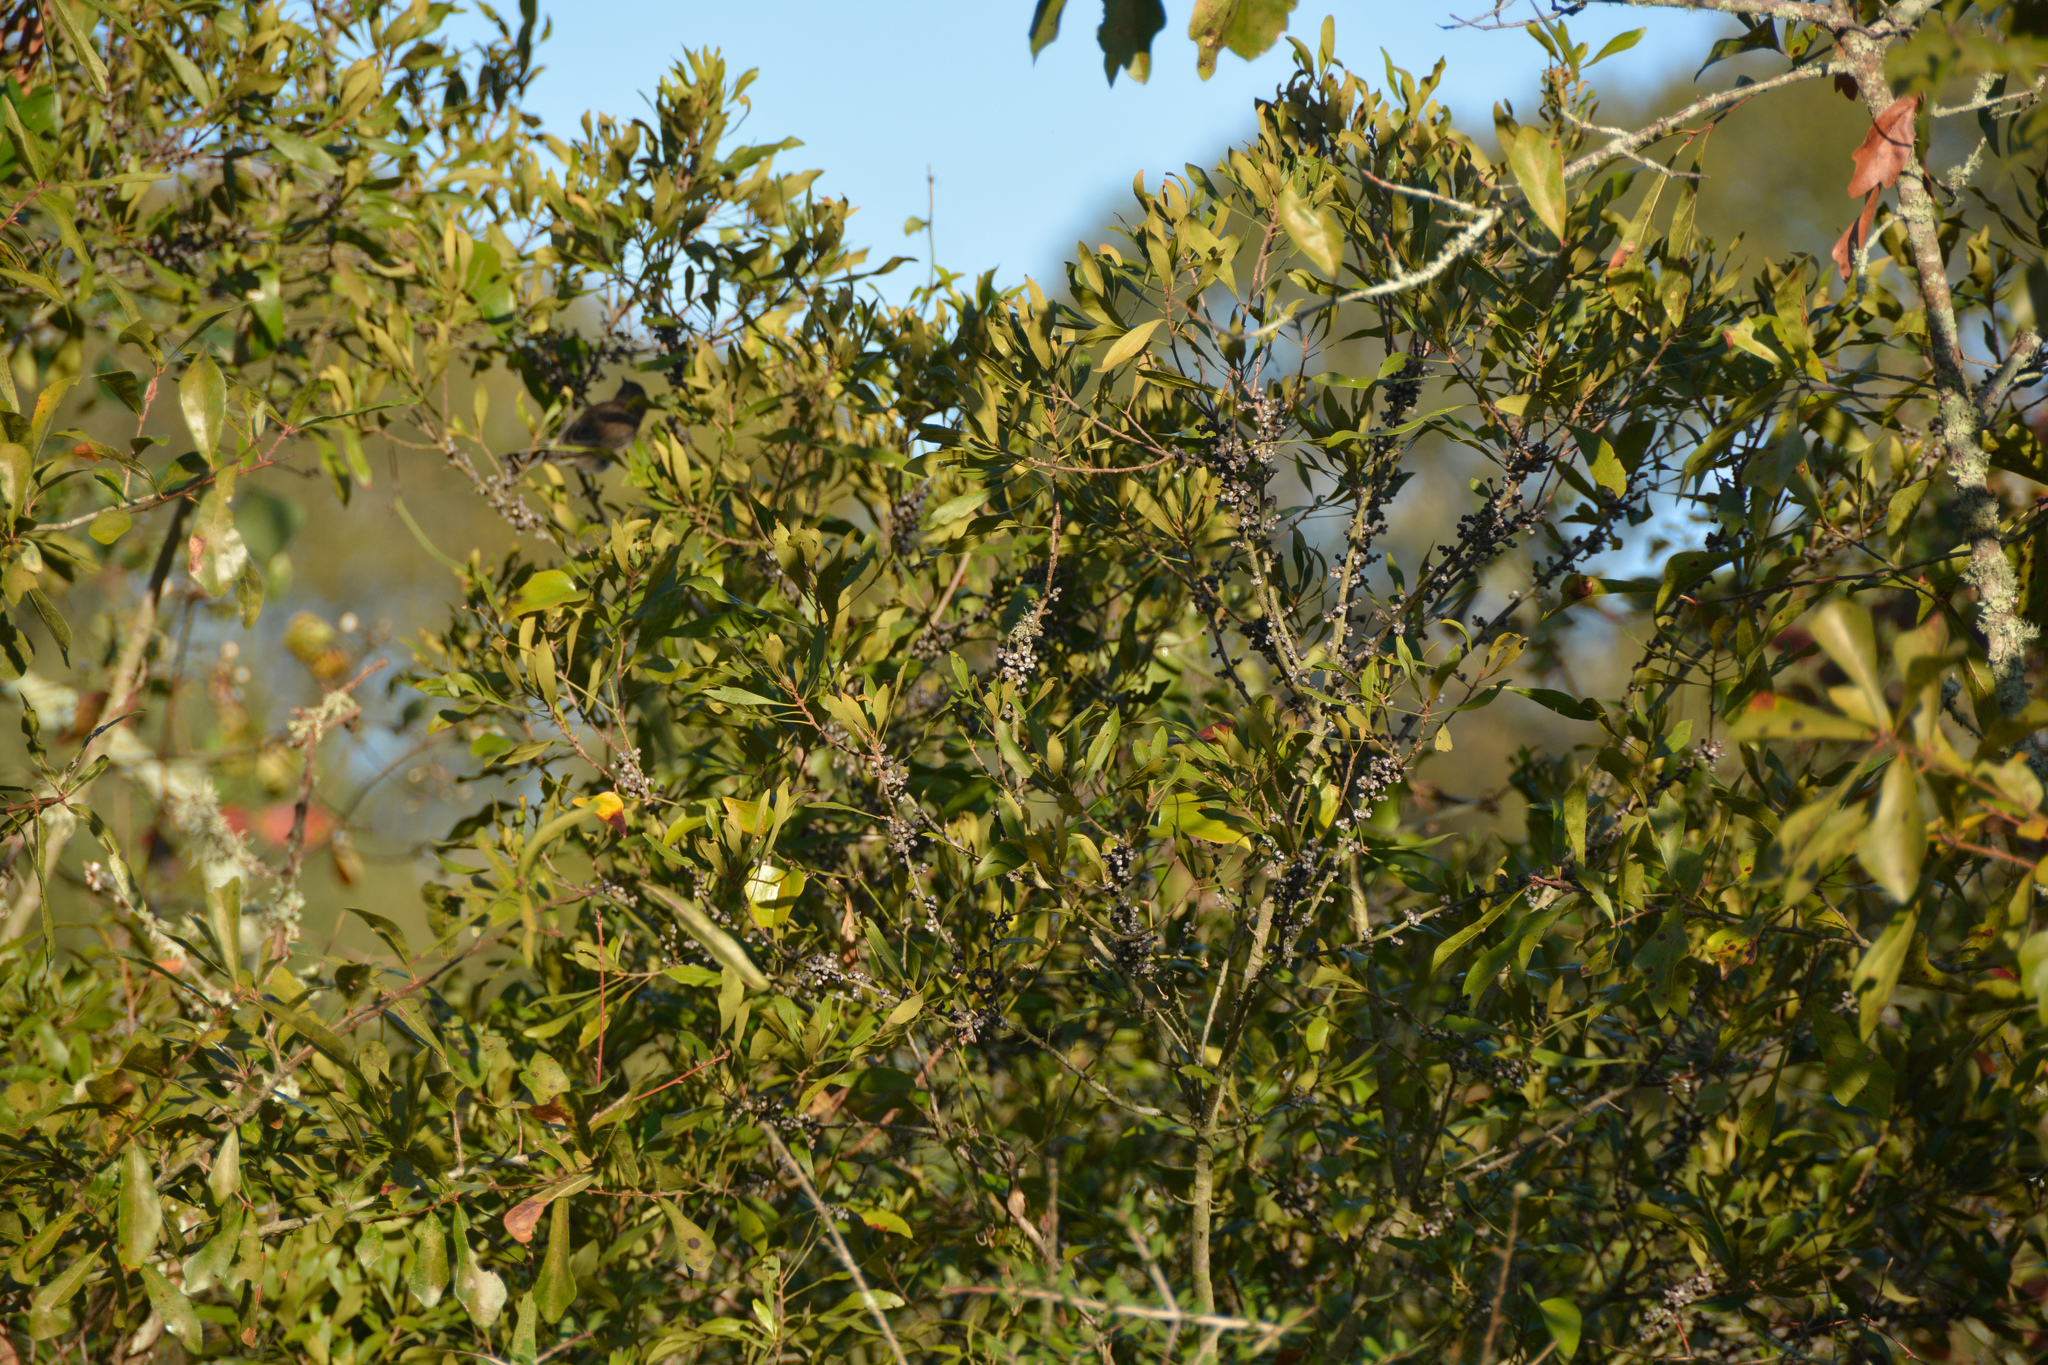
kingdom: Plantae
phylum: Tracheophyta
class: Magnoliopsida
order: Fagales
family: Myricaceae
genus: Morella
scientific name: Morella cerifera
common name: Wax myrtle
